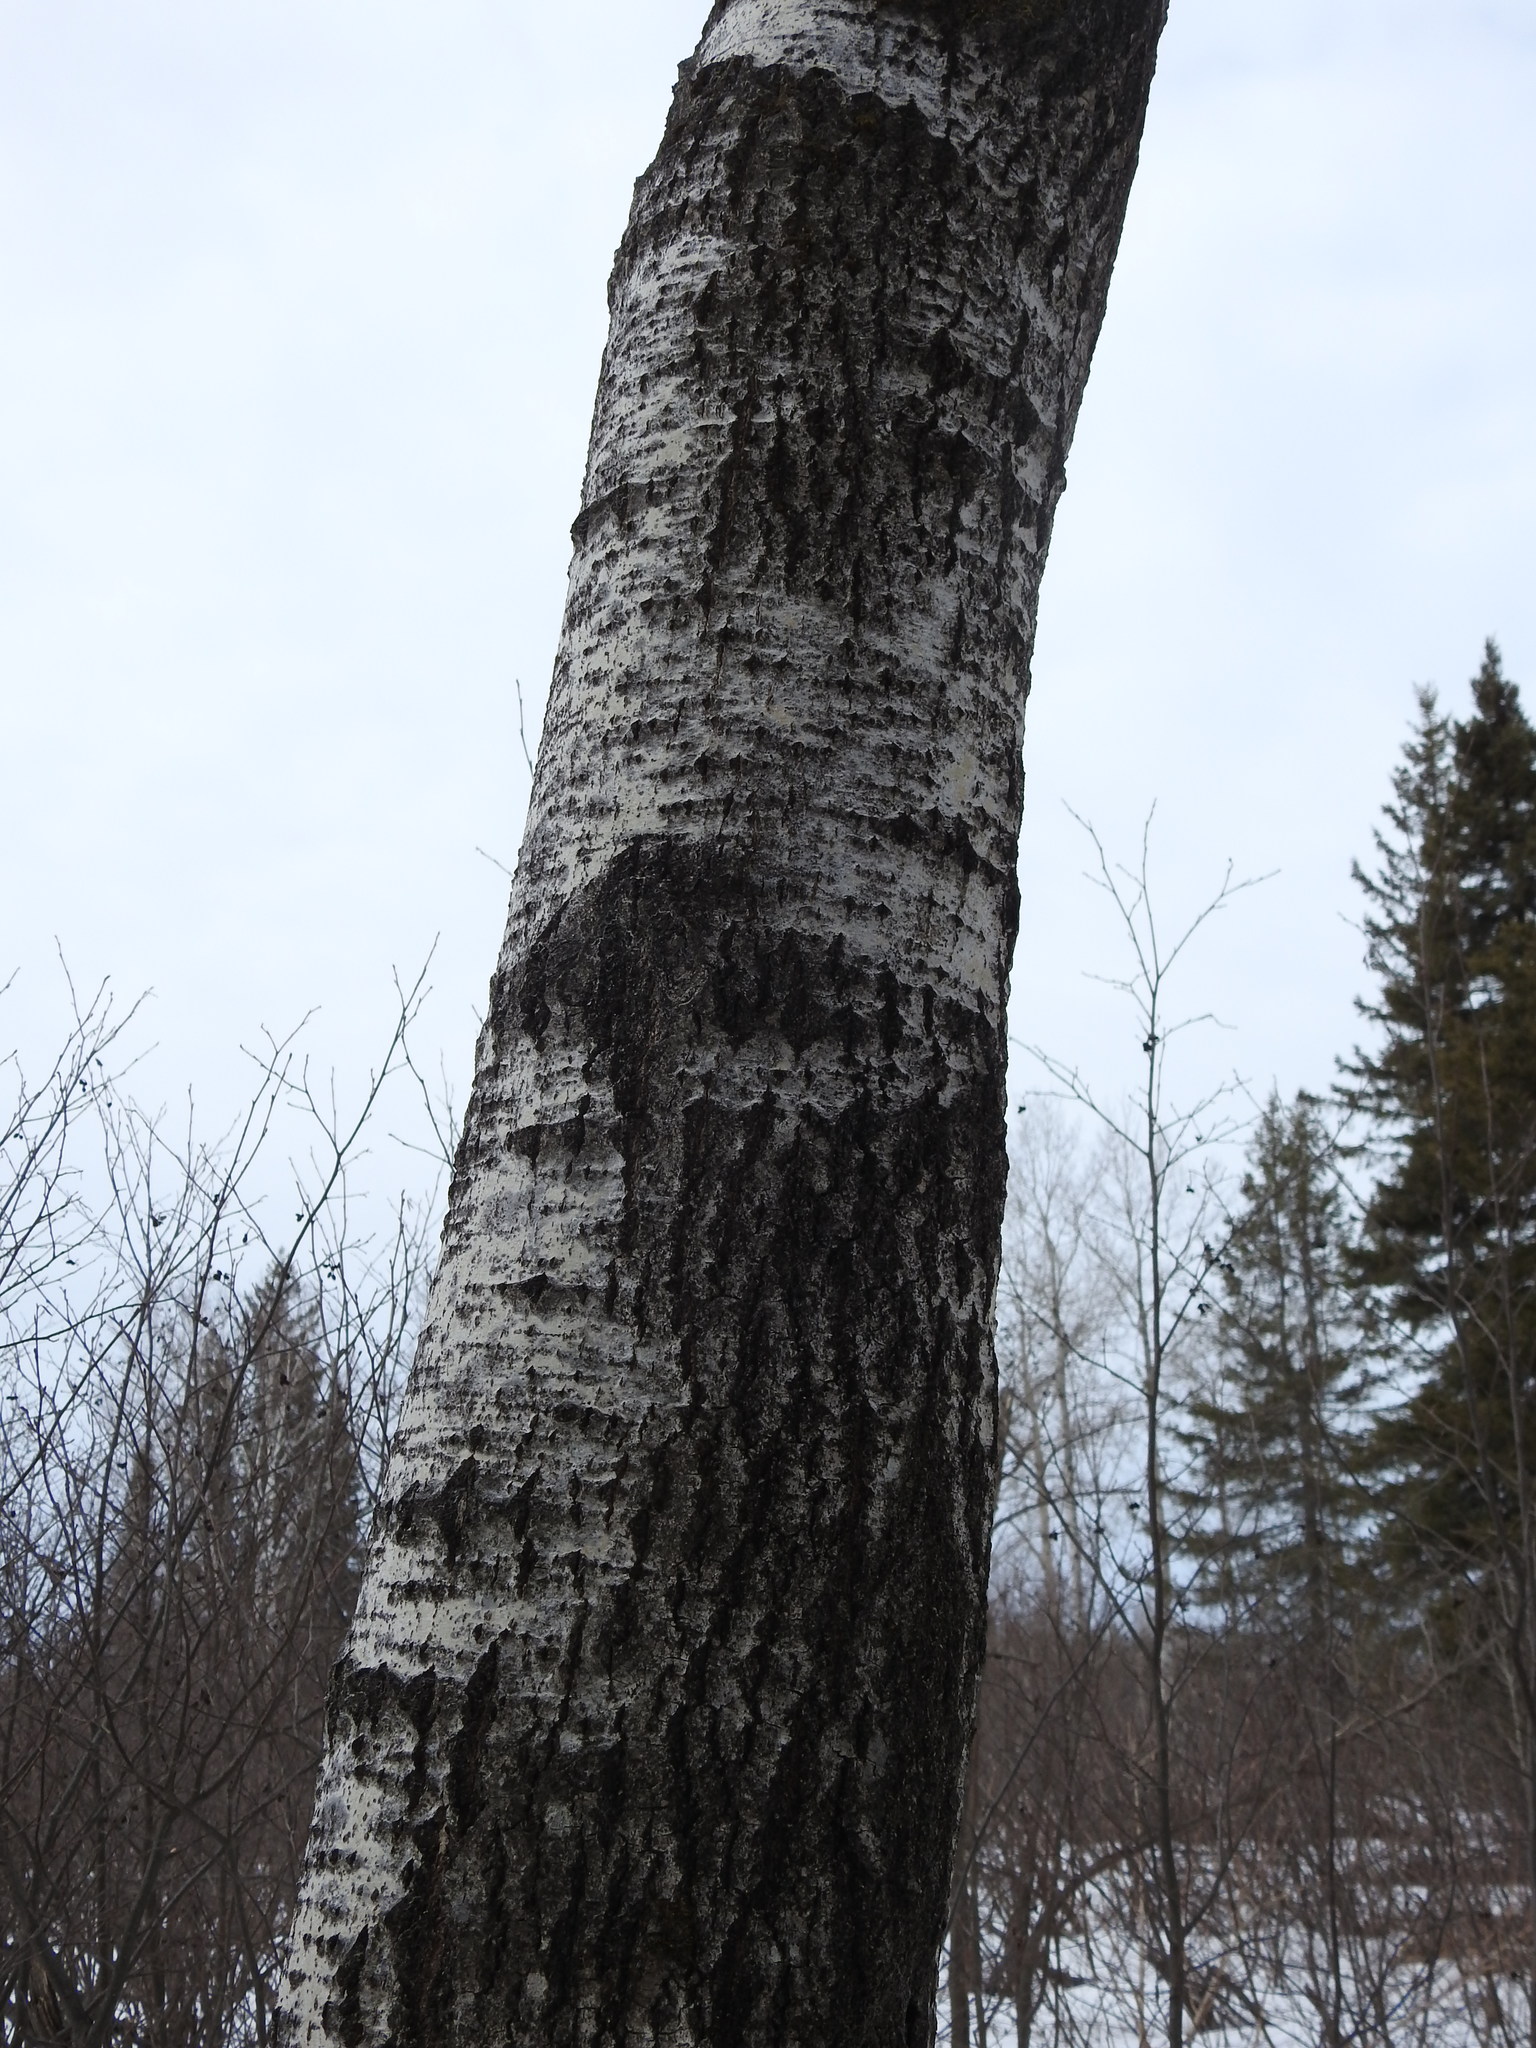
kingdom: Plantae
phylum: Tracheophyta
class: Magnoliopsida
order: Malpighiales
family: Salicaceae
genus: Populus
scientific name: Populus tremuloides
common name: Quaking aspen
